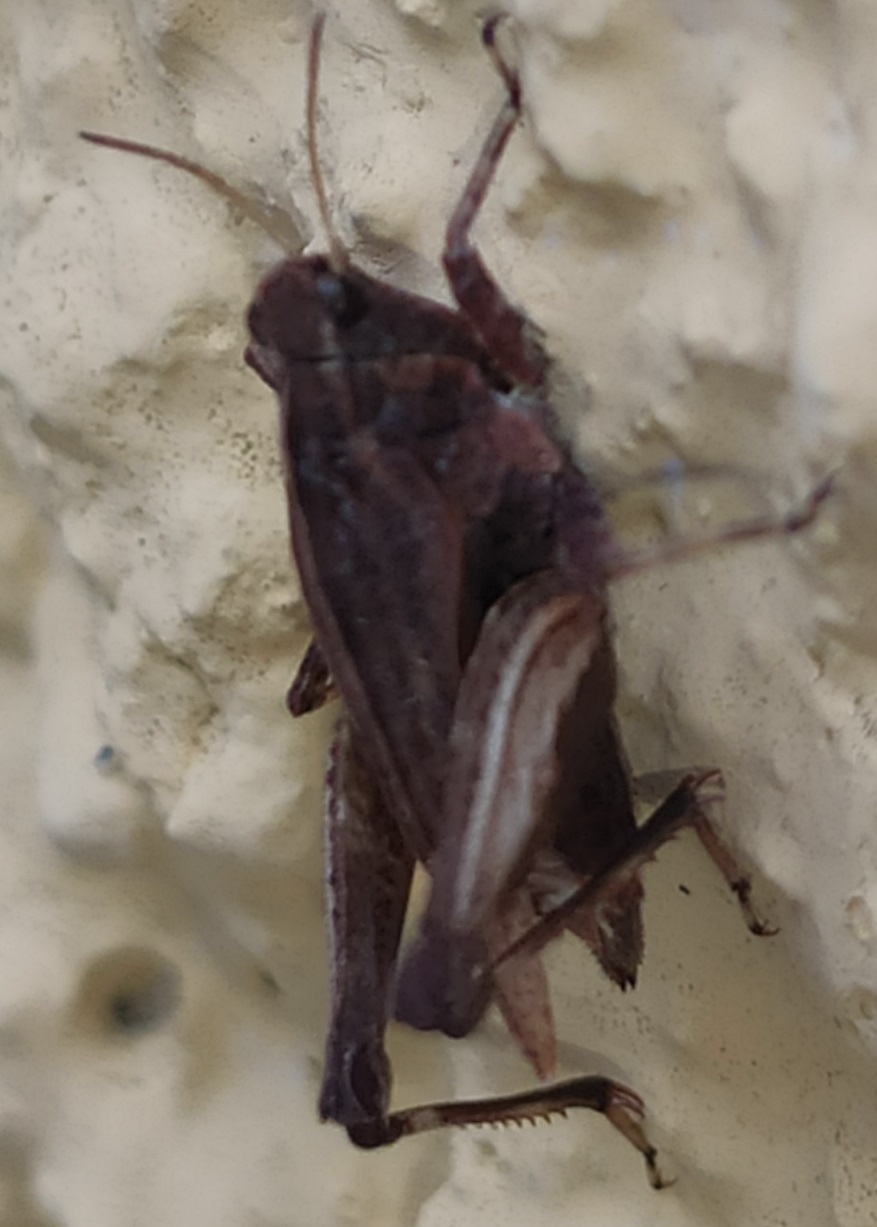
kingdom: Animalia
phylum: Arthropoda
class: Insecta
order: Orthoptera
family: Tetrigidae
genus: Tetrix
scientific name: Tetrix undulata
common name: Common groundhopper
